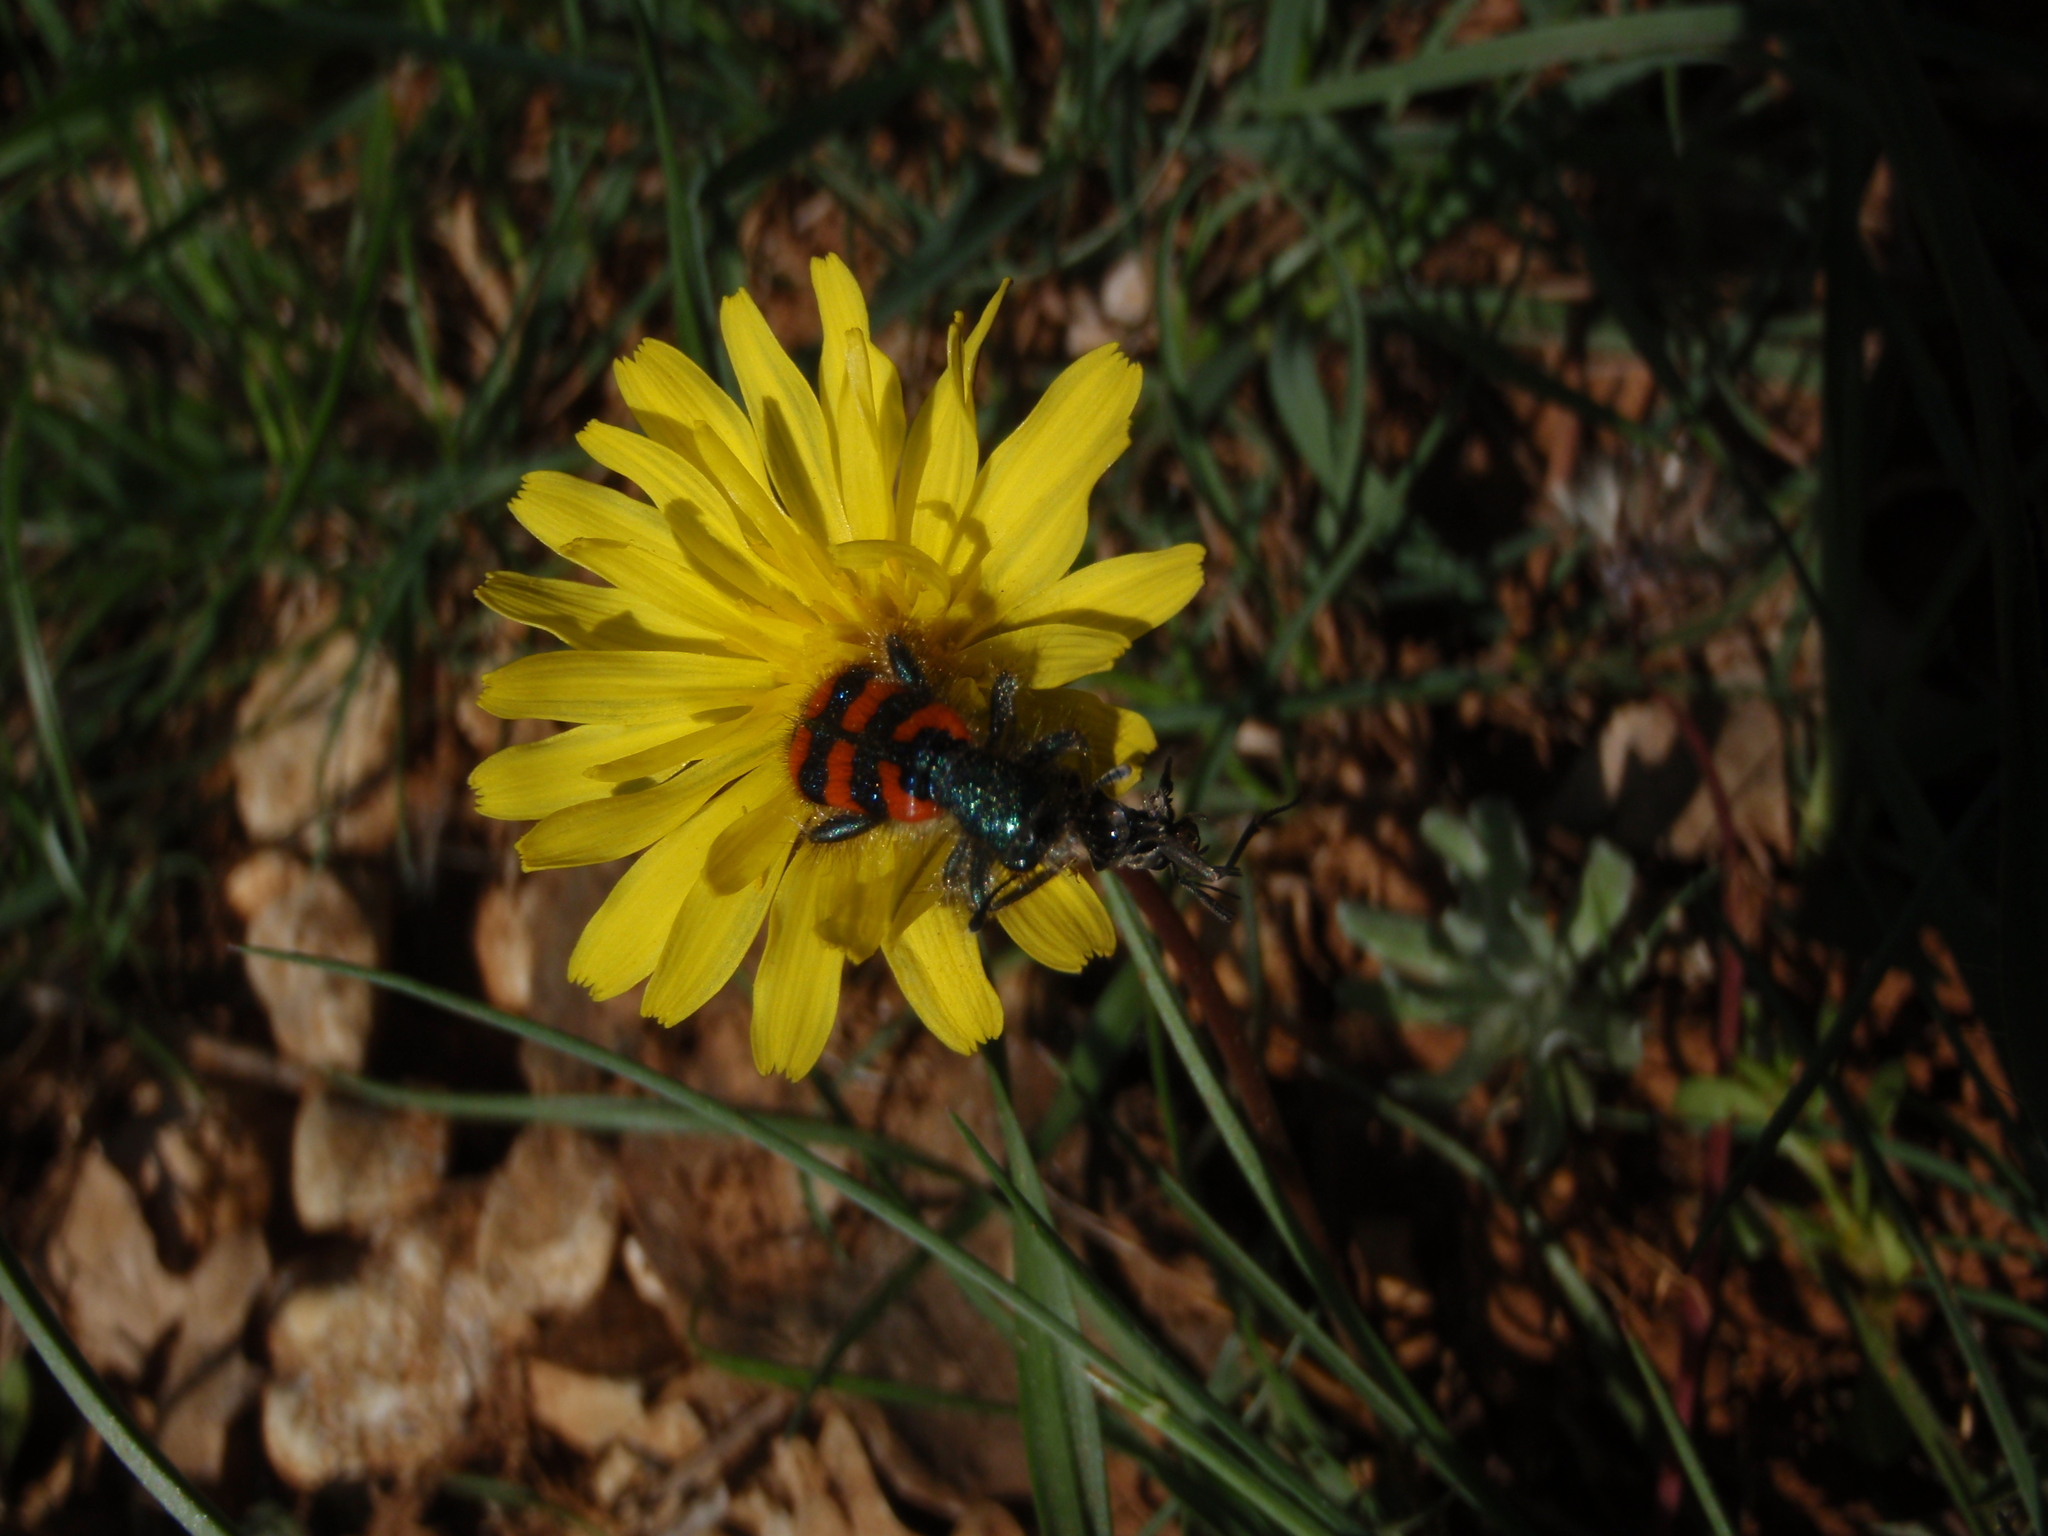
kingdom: Animalia
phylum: Arthropoda
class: Insecta
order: Coleoptera
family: Cleridae
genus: Trichodes
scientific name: Trichodes alvearius
